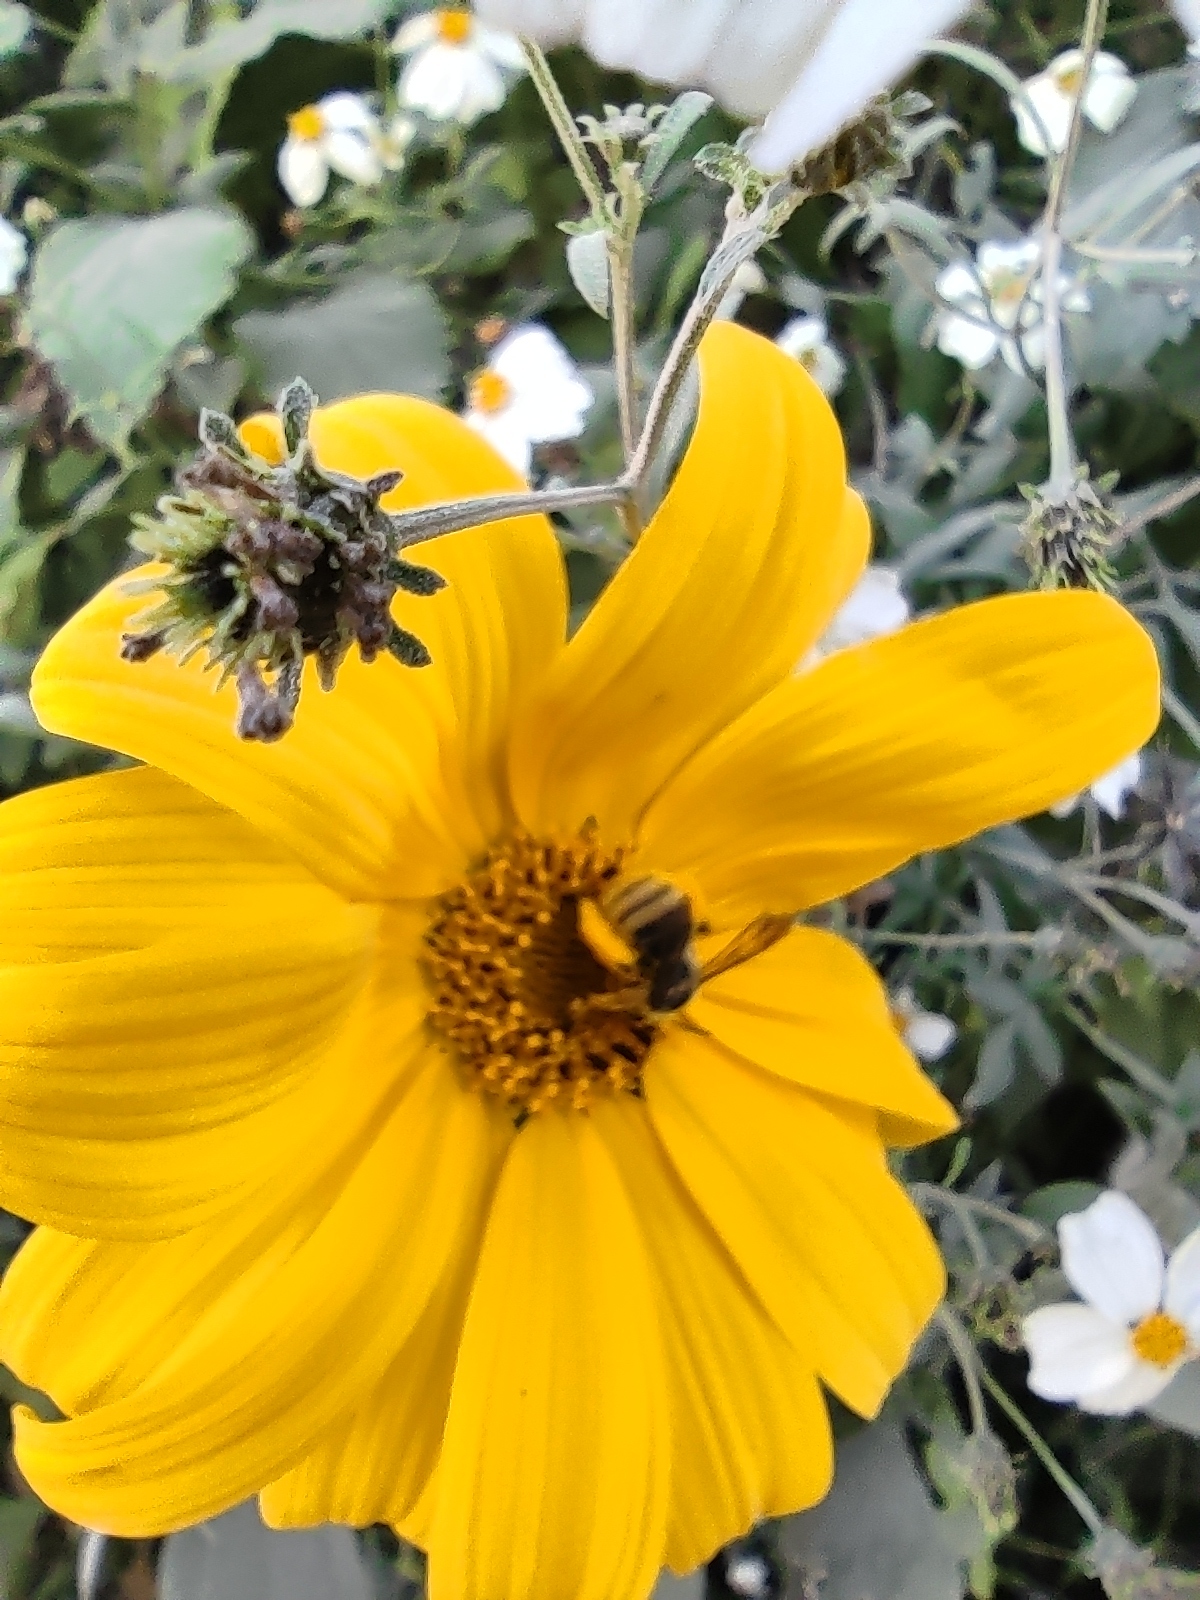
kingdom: Plantae
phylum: Tracheophyta
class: Magnoliopsida
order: Asterales
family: Asteraceae
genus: Tithonia
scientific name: Tithonia tubaeformis
